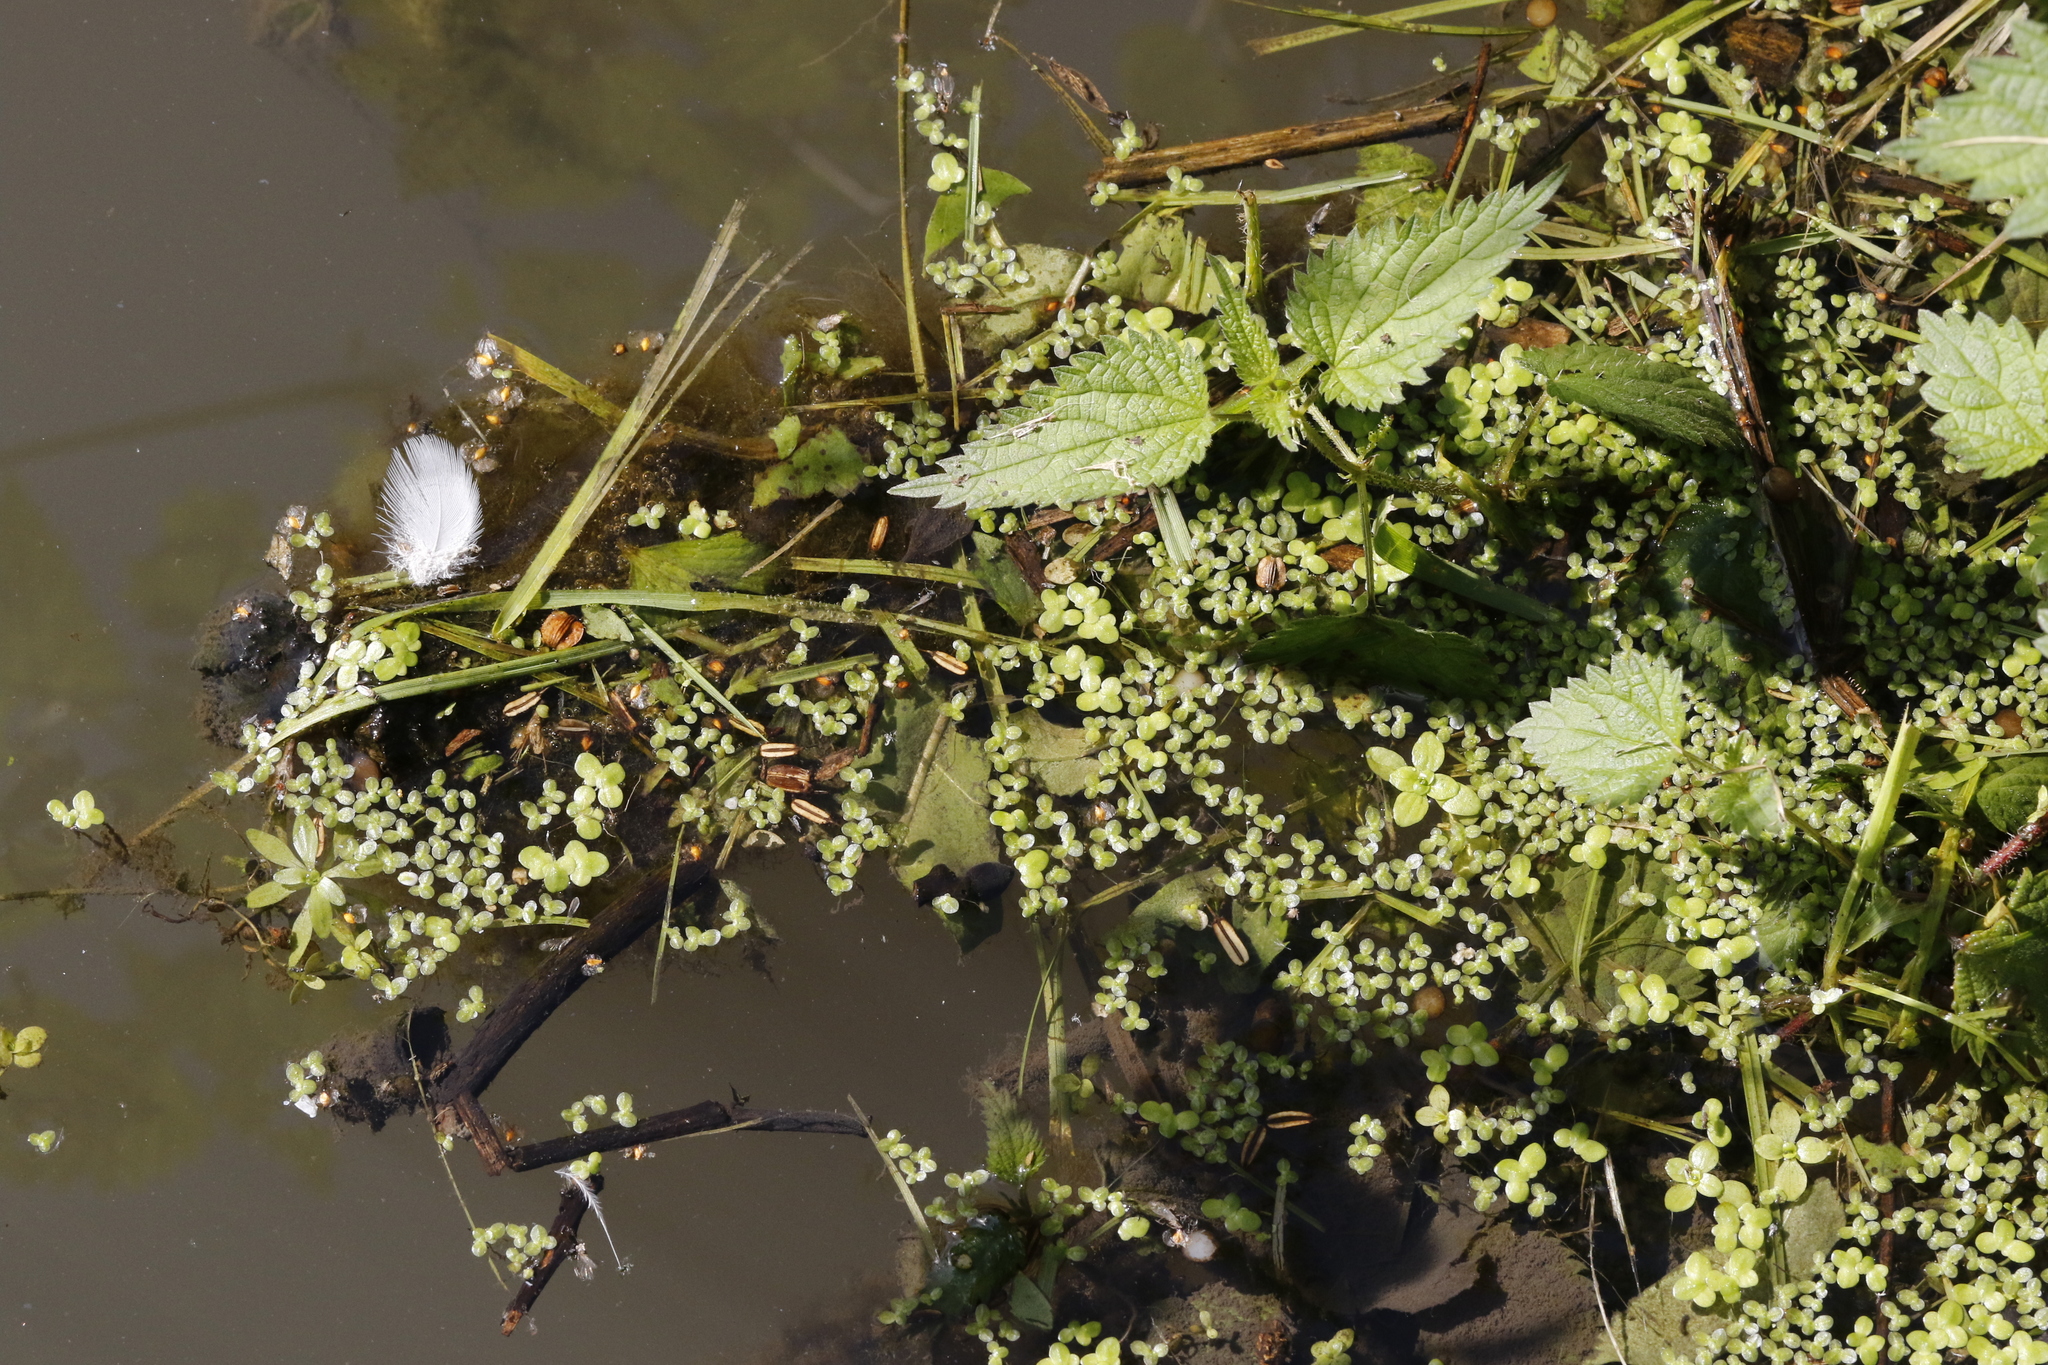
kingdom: Plantae
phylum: Tracheophyta
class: Magnoliopsida
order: Rosales
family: Urticaceae
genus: Urtica
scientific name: Urtica dioica
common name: Common nettle
